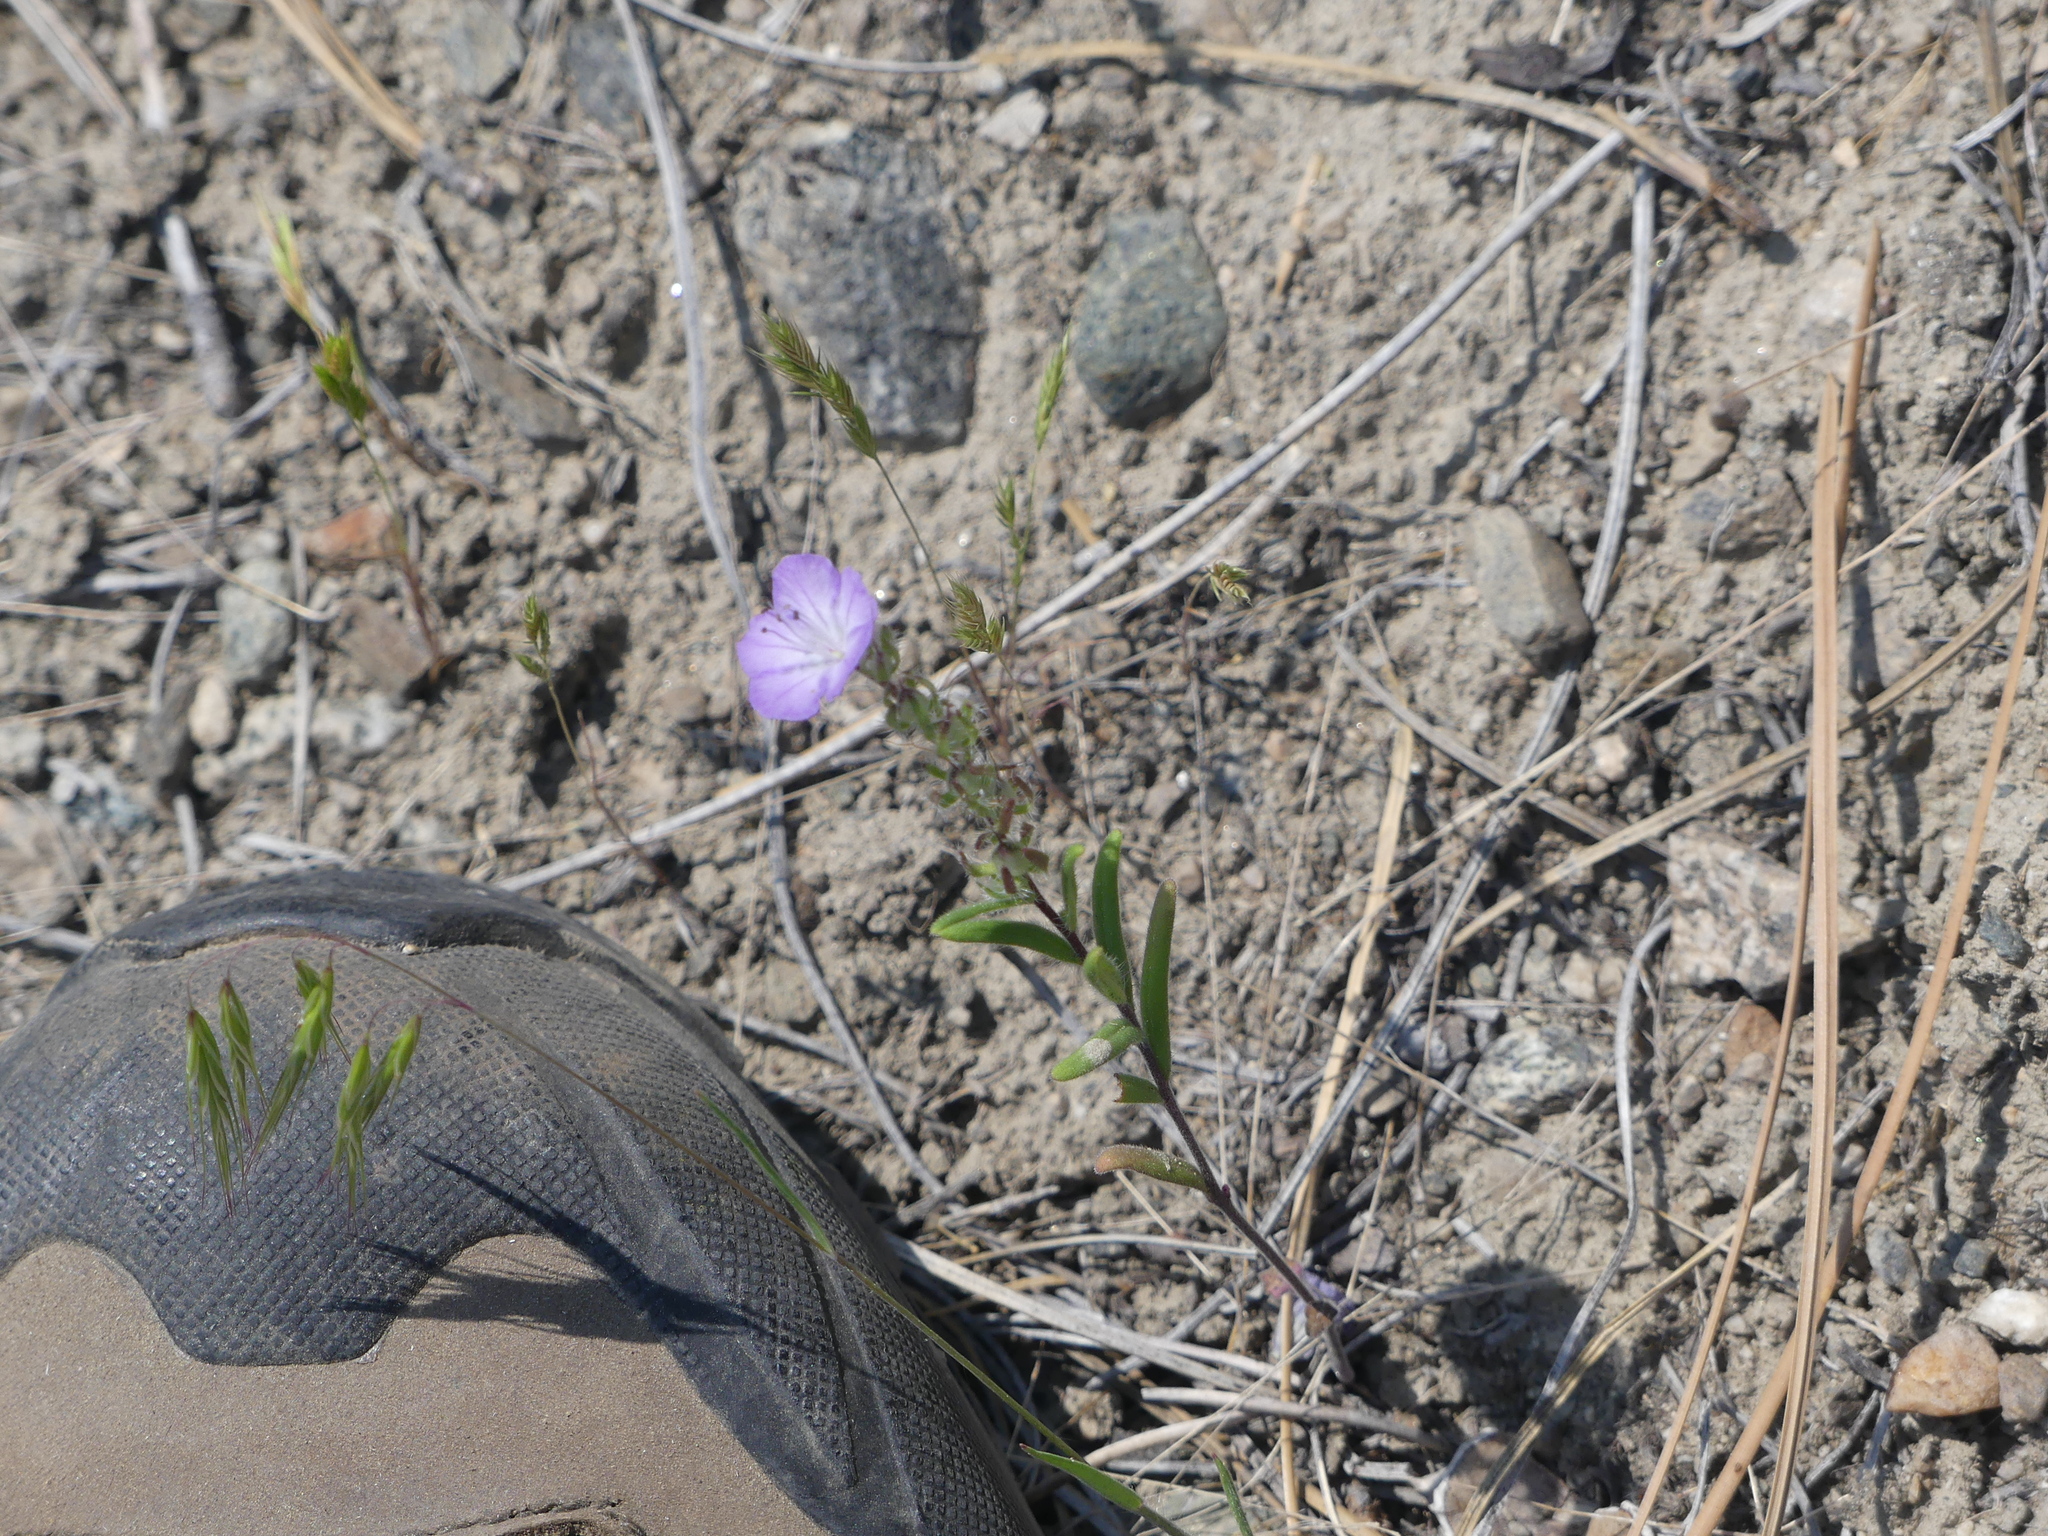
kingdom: Plantae
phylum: Tracheophyta
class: Magnoliopsida
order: Boraginales
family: Hydrophyllaceae
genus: Phacelia
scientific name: Phacelia linearis
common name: Linear-leaved phacelia
